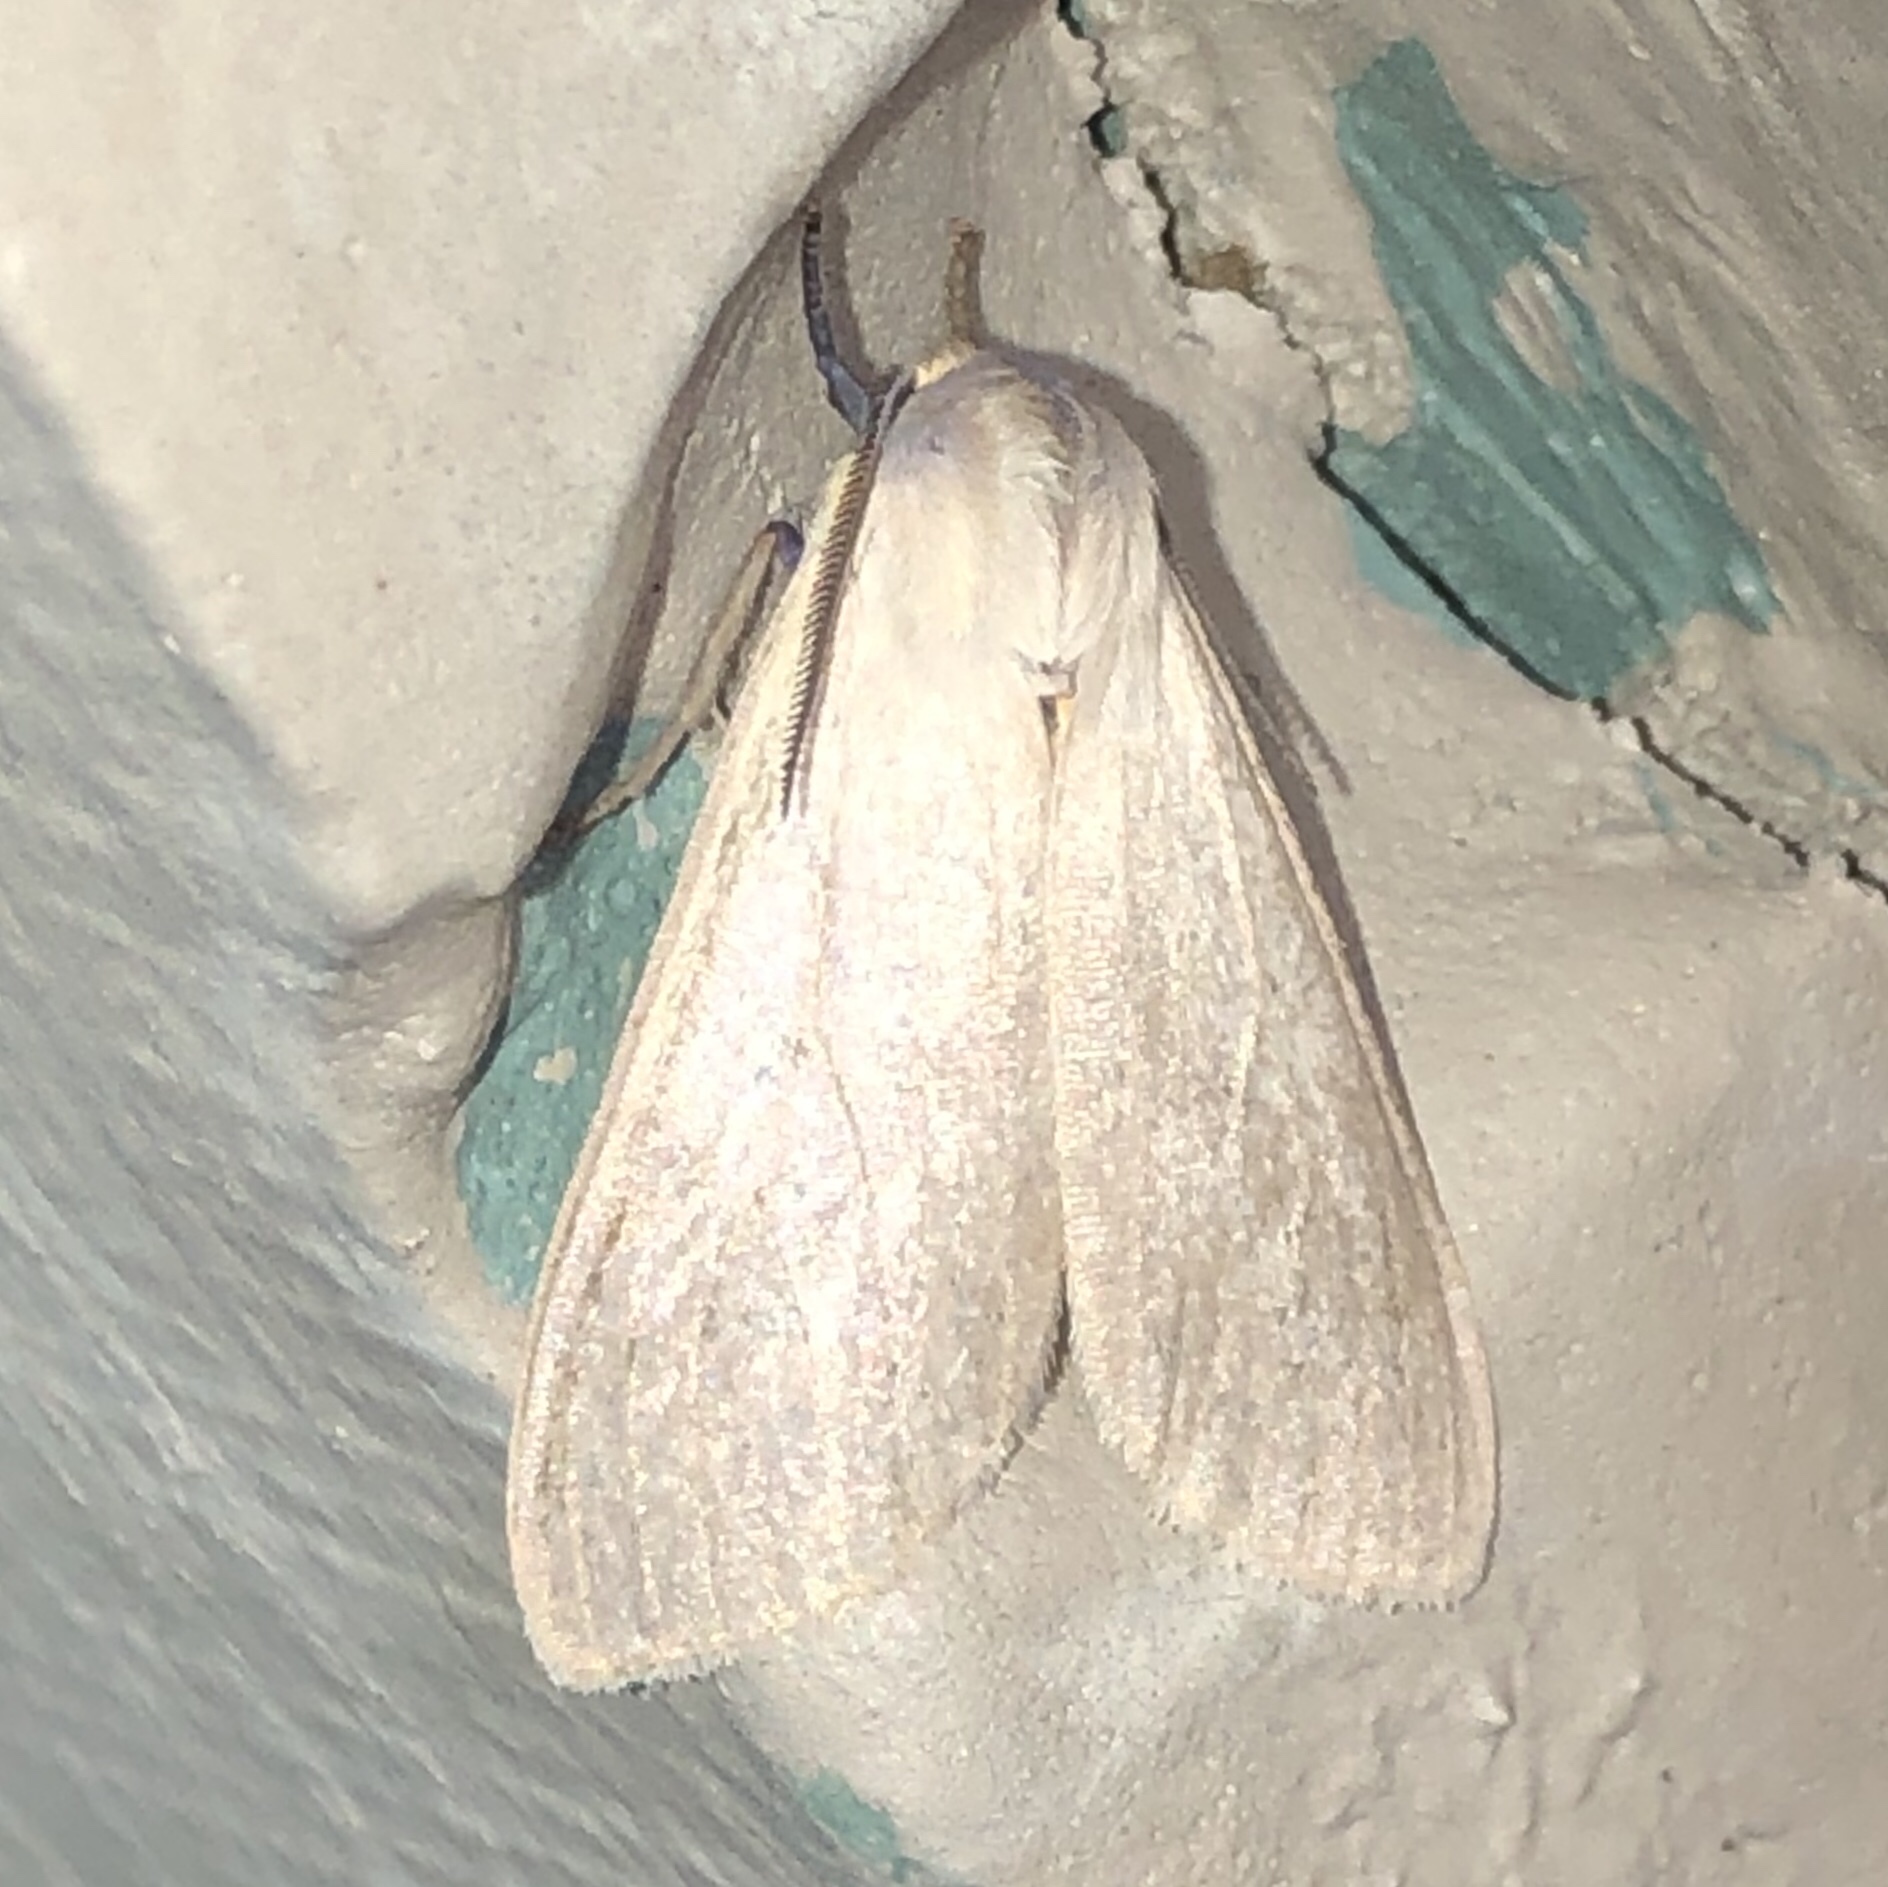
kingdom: Animalia
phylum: Arthropoda
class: Insecta
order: Lepidoptera
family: Erebidae
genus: Euchaetes
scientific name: Euchaetes egle
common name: Milkweed tussock moth
